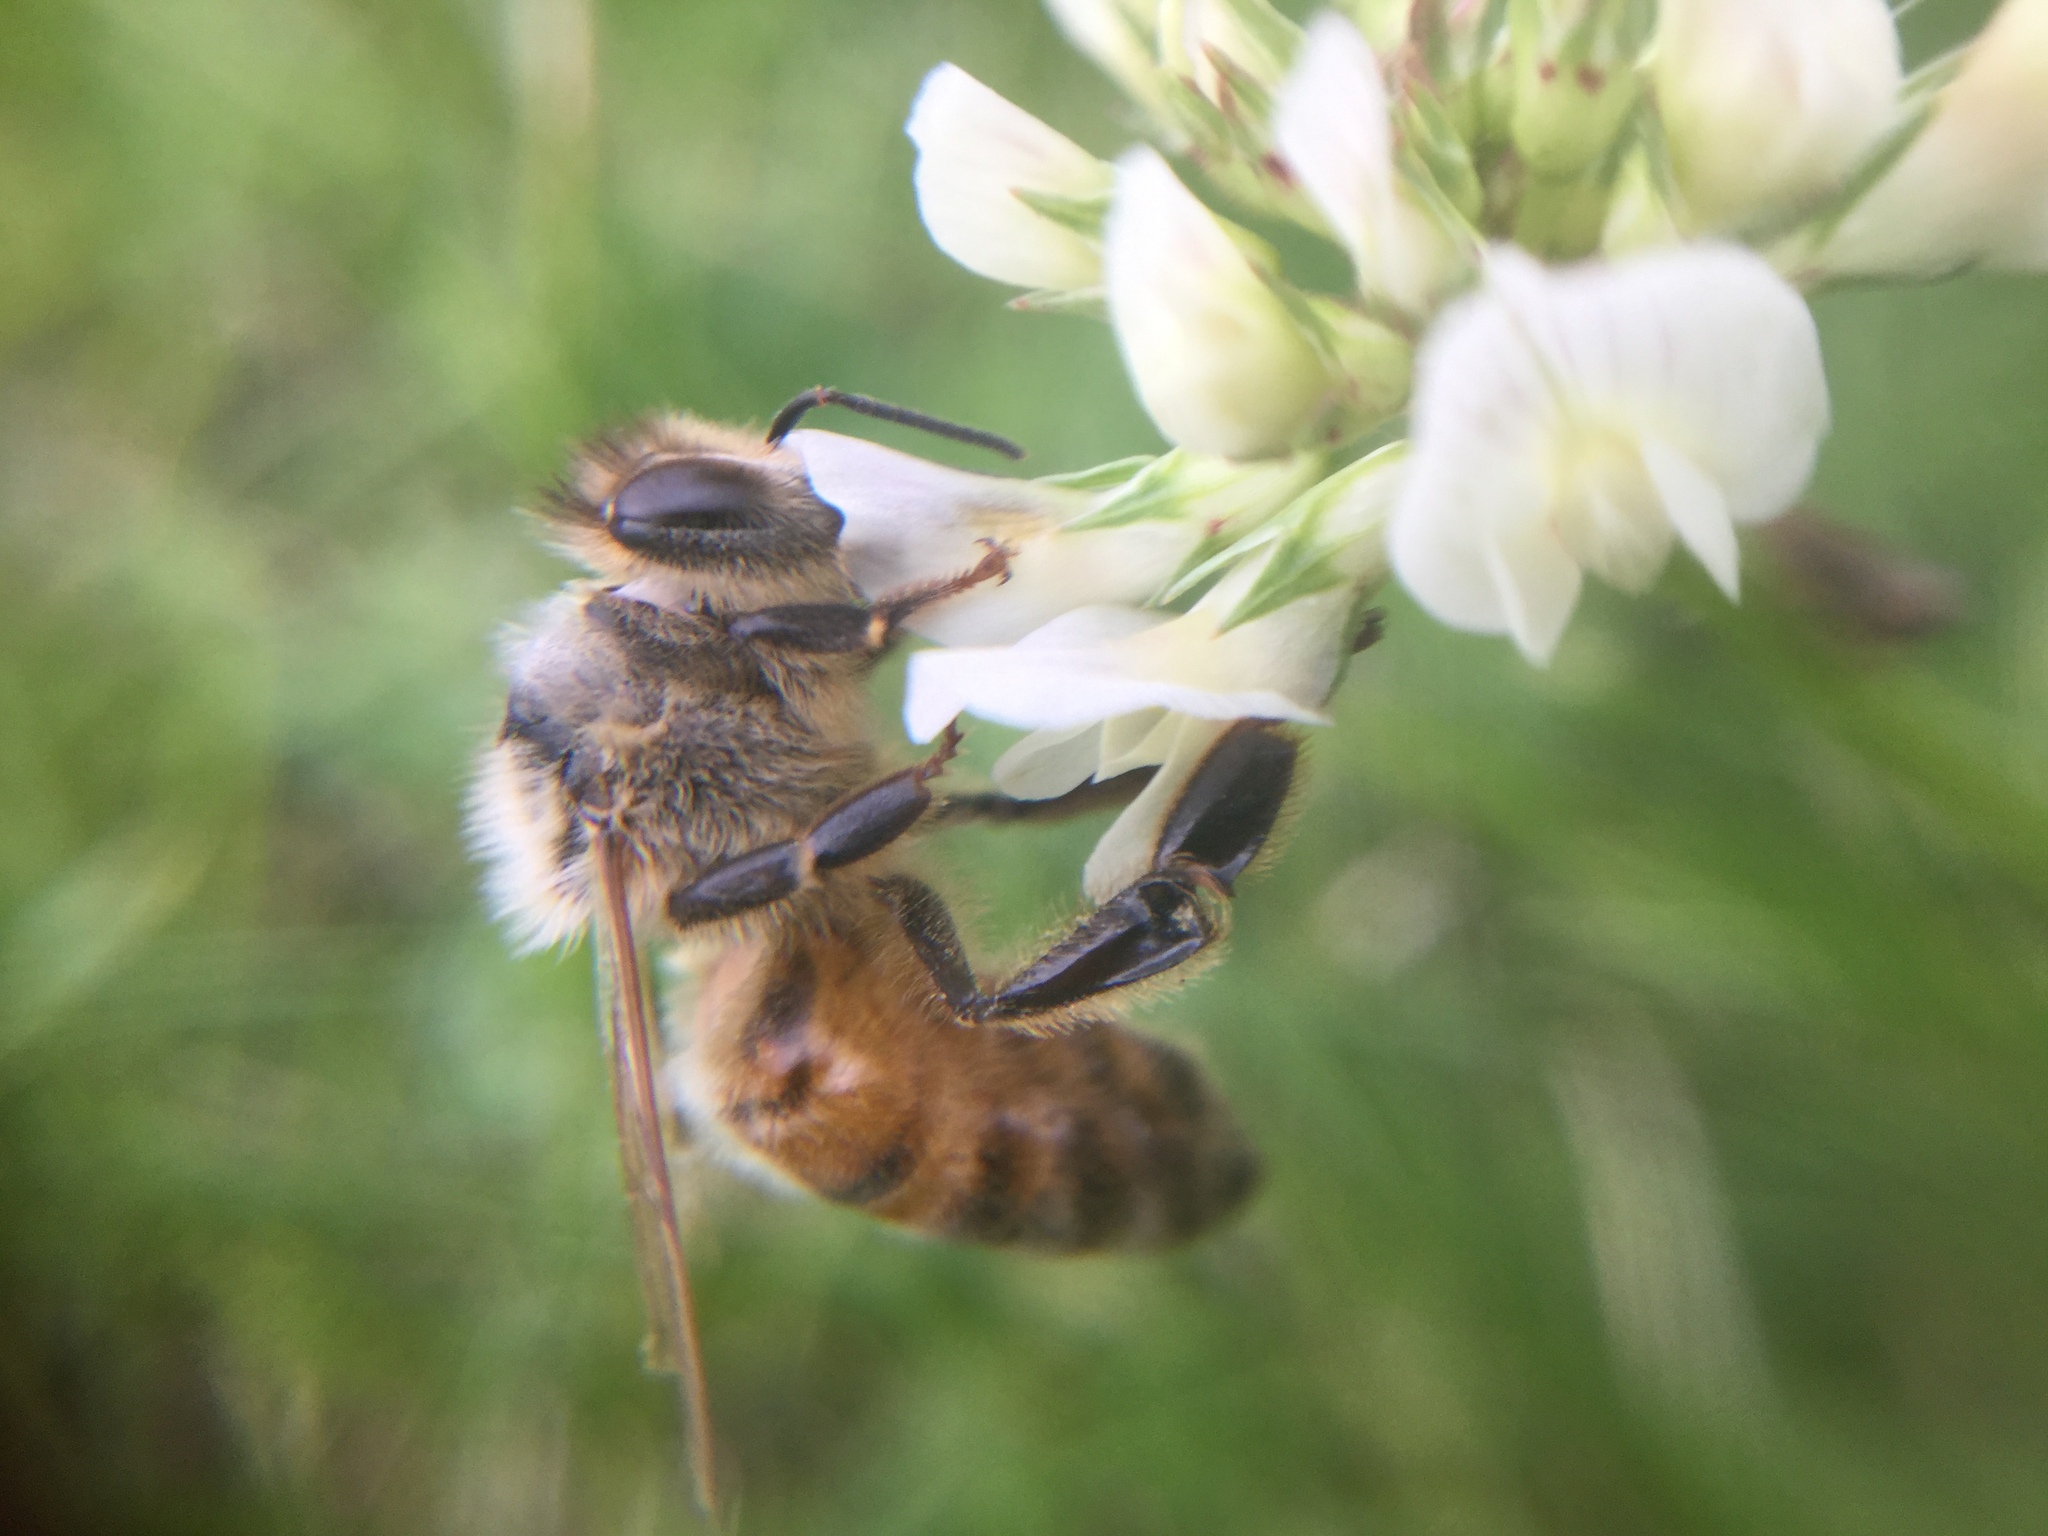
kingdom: Animalia
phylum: Arthropoda
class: Insecta
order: Hymenoptera
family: Apidae
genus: Apis
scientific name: Apis mellifera
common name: Honey bee
